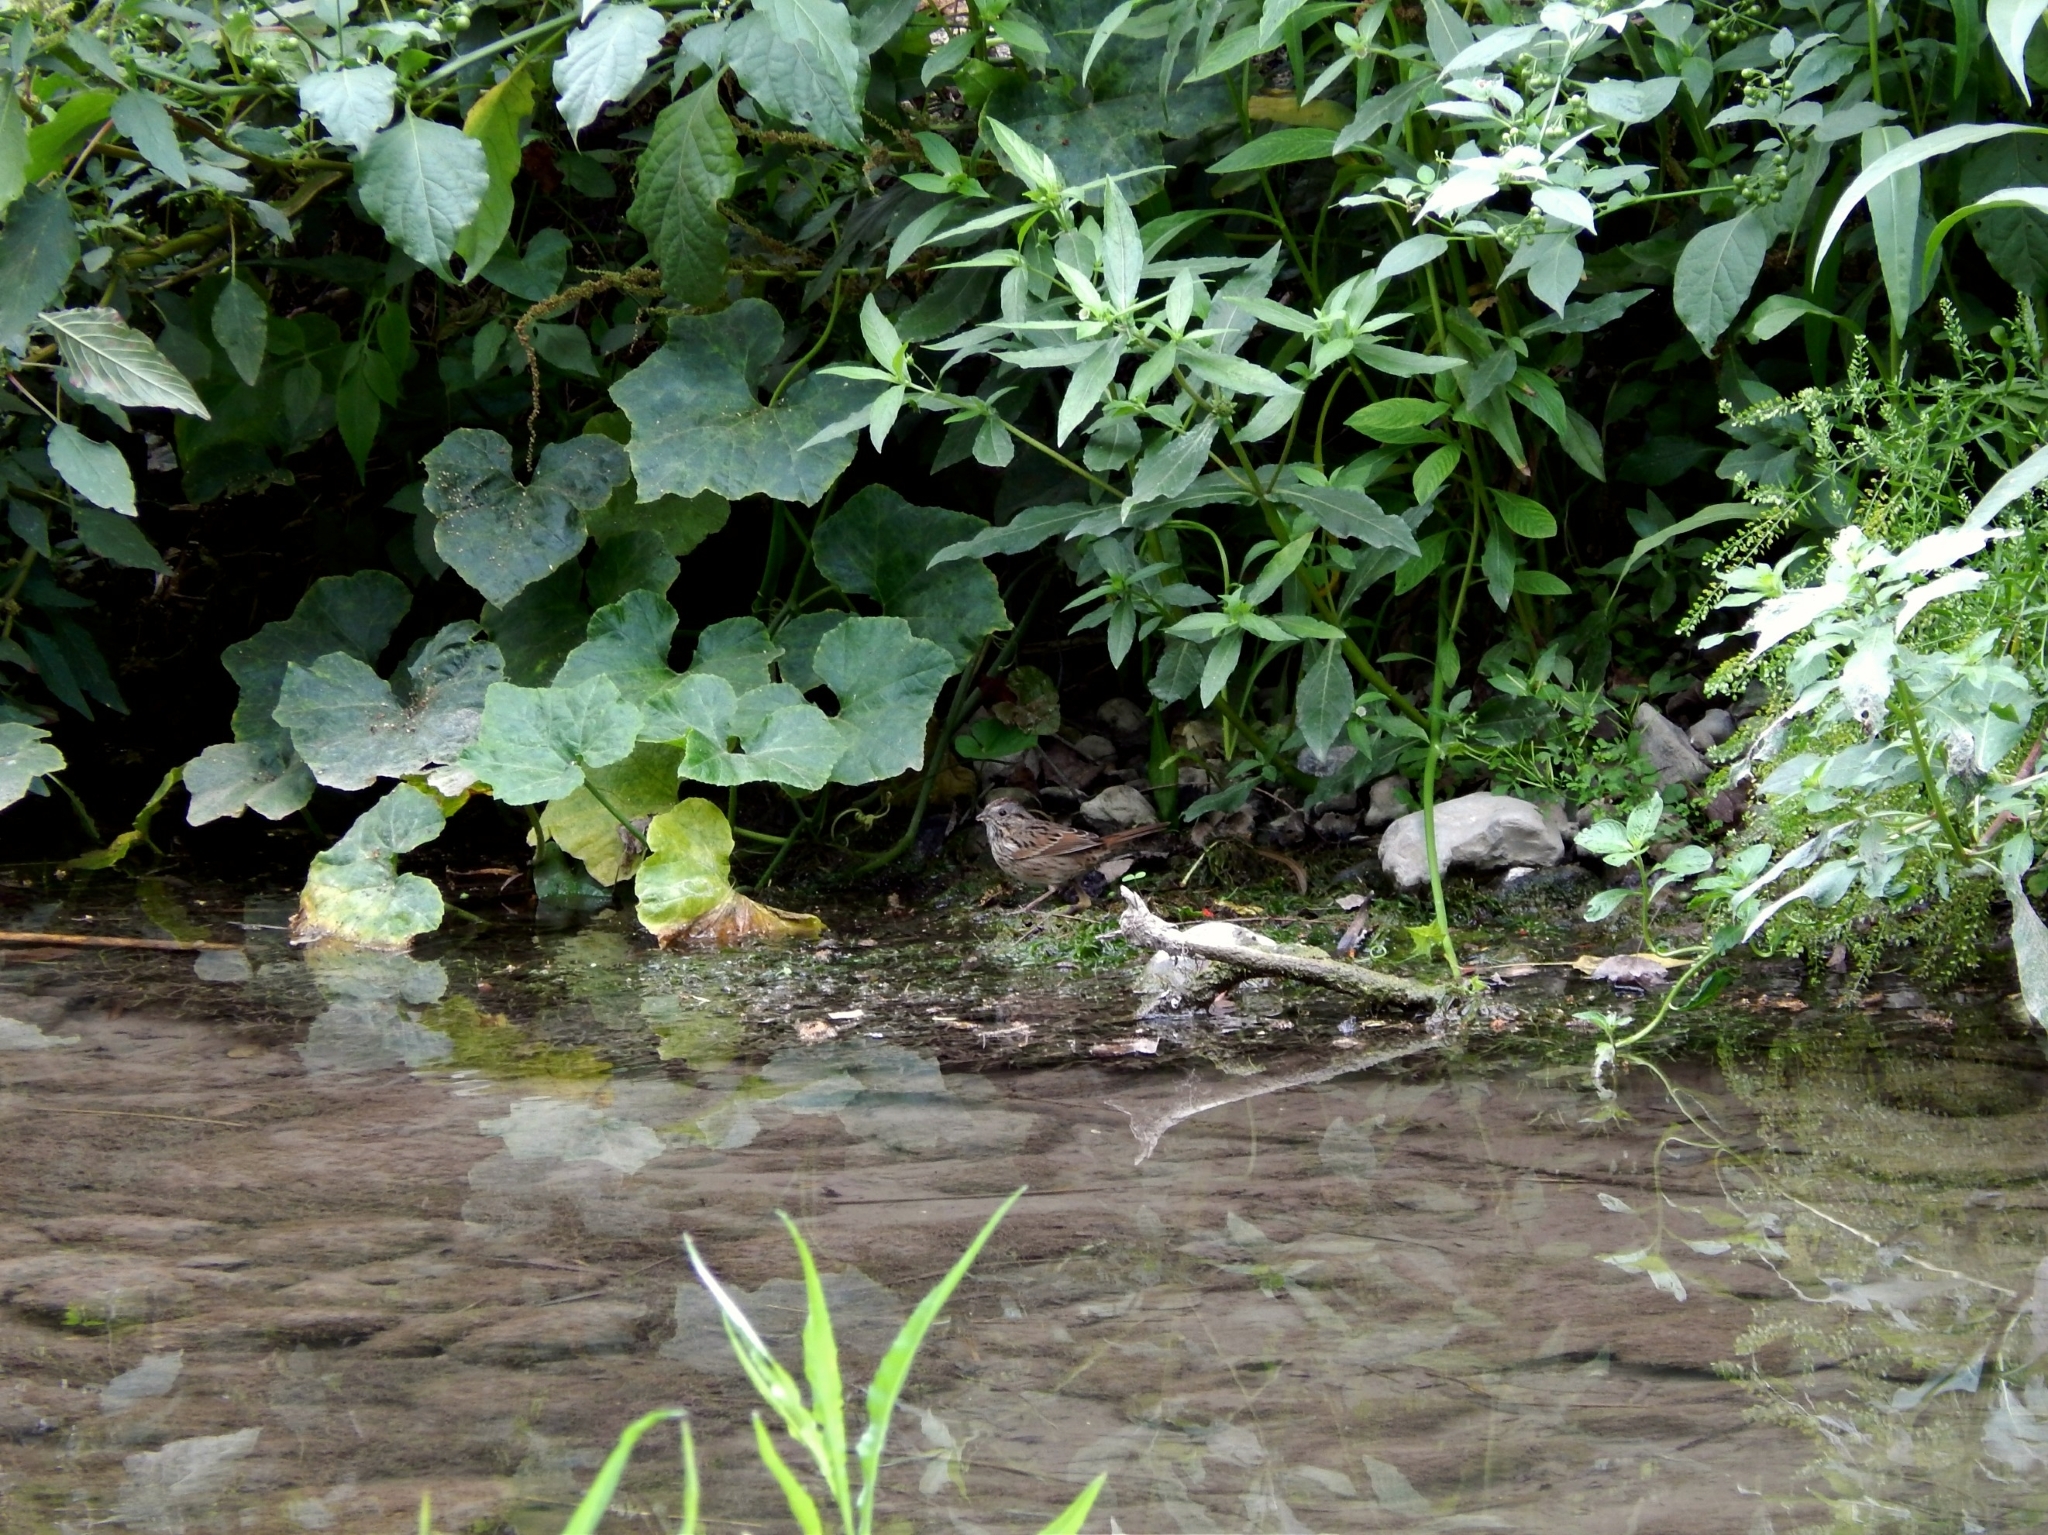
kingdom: Animalia
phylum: Chordata
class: Aves
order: Passeriformes
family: Passerellidae
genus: Melospiza
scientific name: Melospiza lincolnii
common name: Lincoln's sparrow
